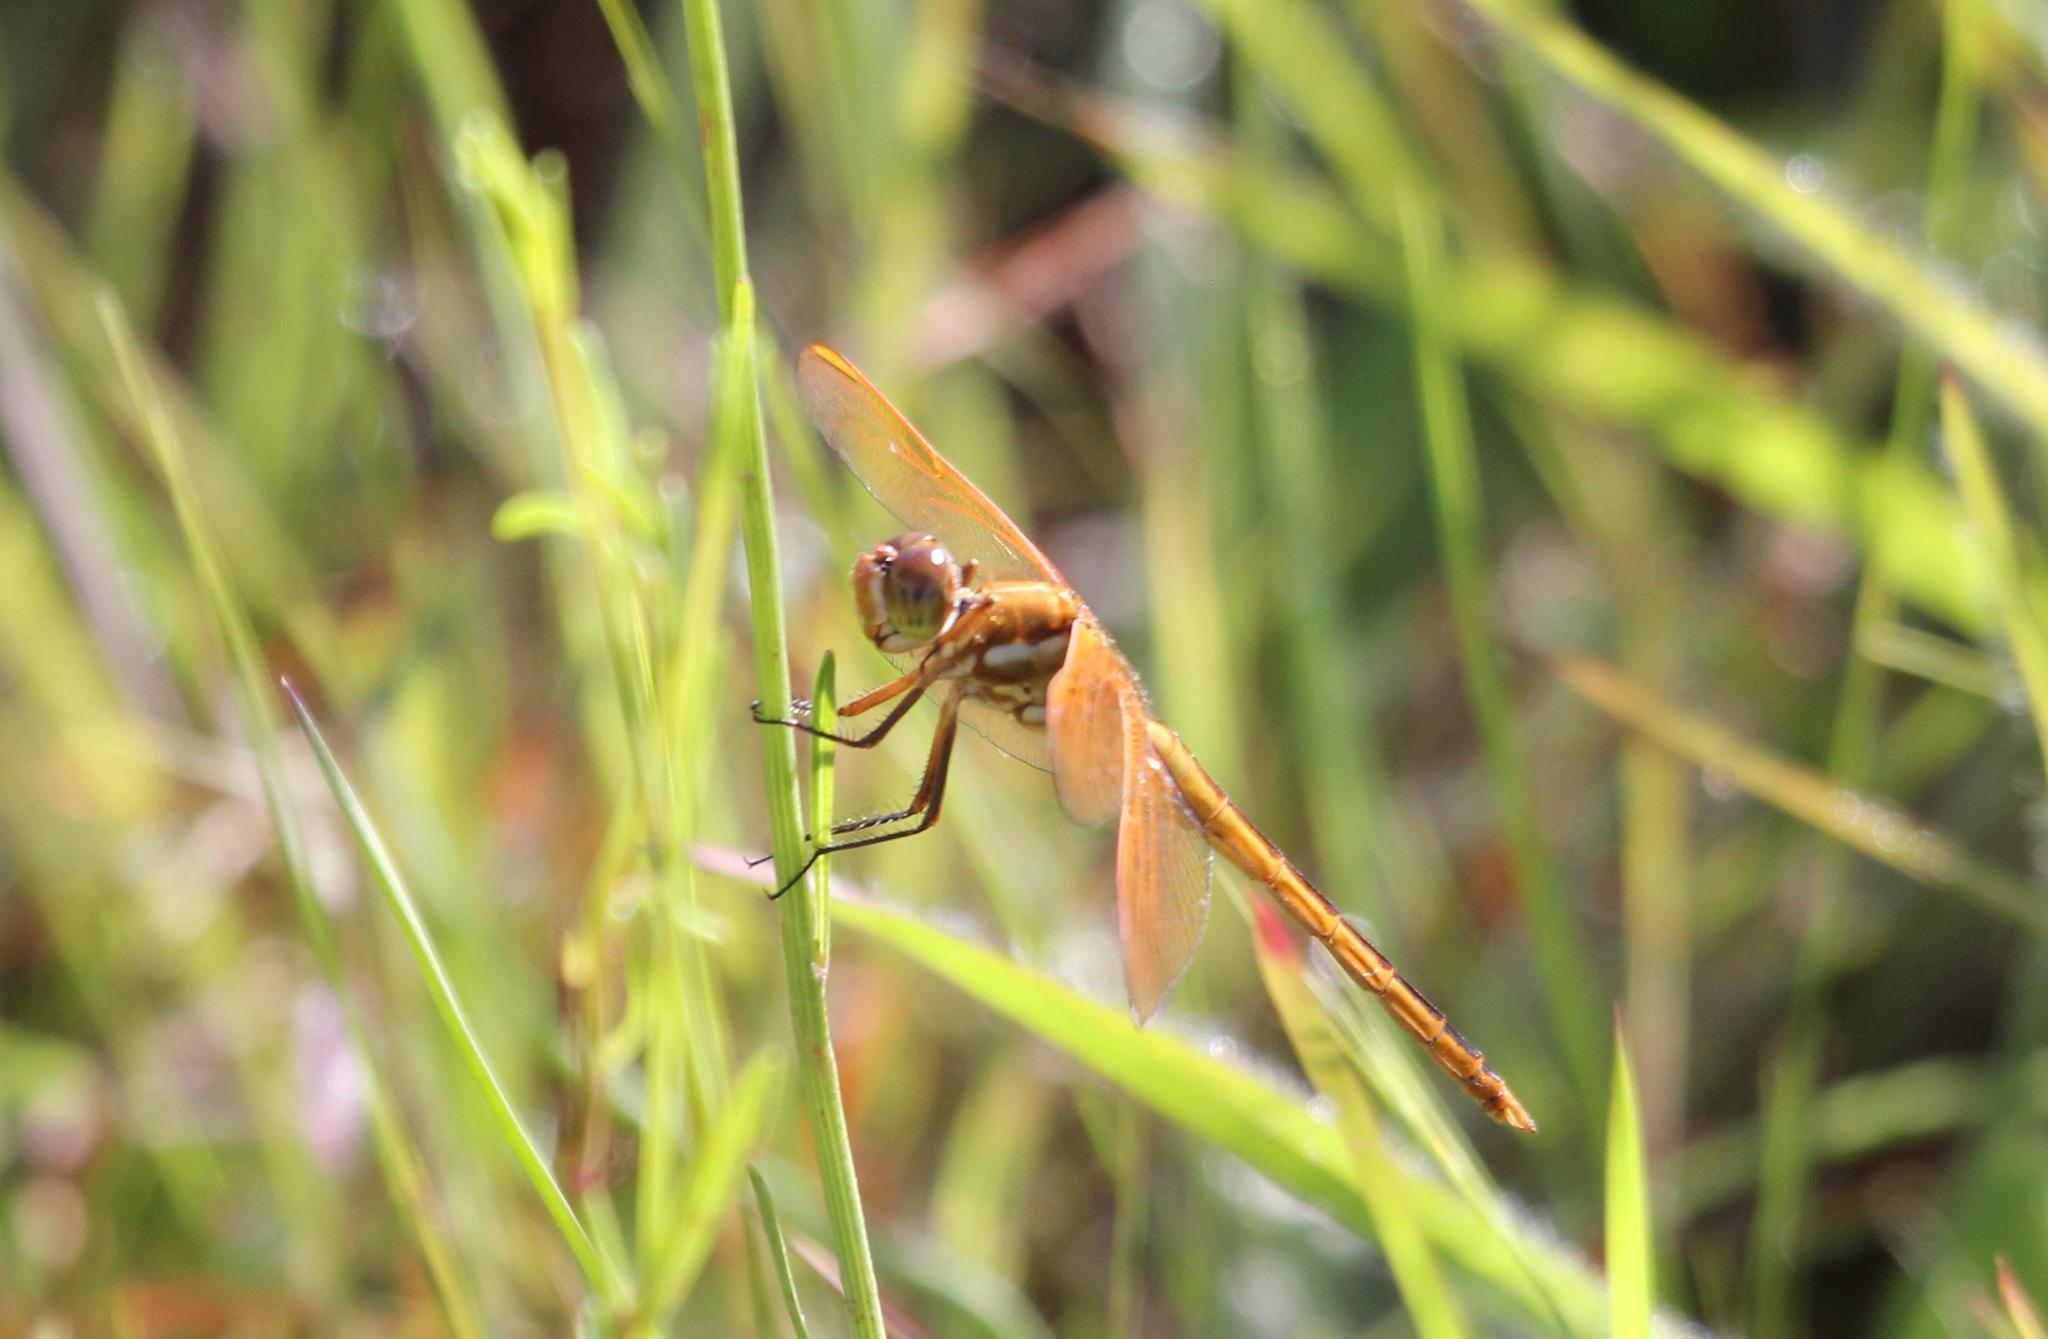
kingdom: Animalia
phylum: Arthropoda
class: Insecta
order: Odonata
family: Libellulidae
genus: Libellula
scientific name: Libellula auripennis
